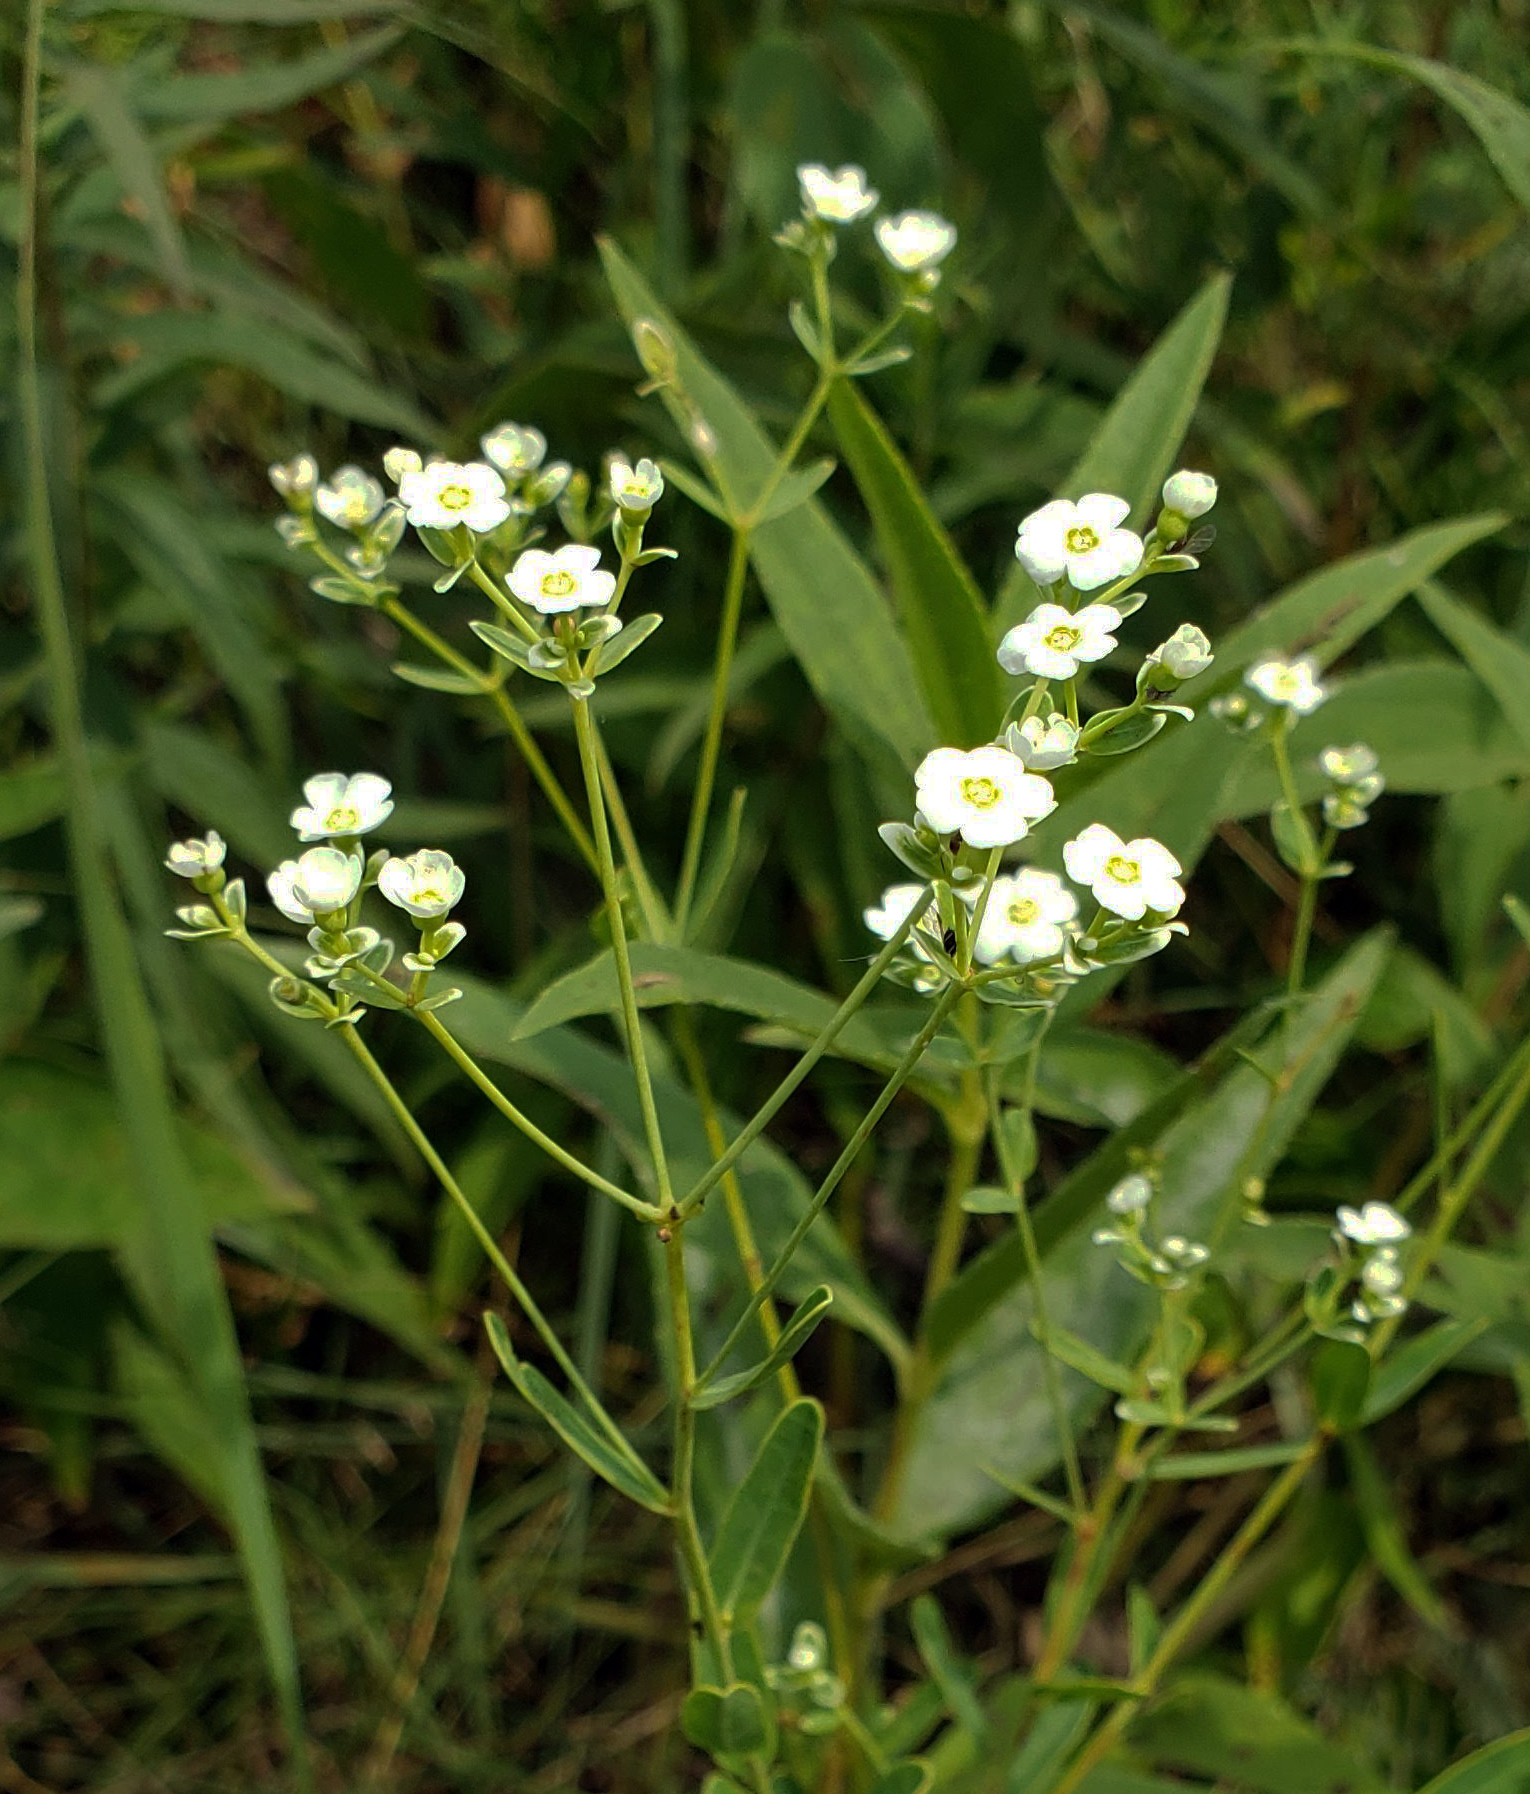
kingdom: Plantae
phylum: Tracheophyta
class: Magnoliopsida
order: Malpighiales
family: Euphorbiaceae
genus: Euphorbia
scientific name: Euphorbia corollata
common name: Flowering spurge
